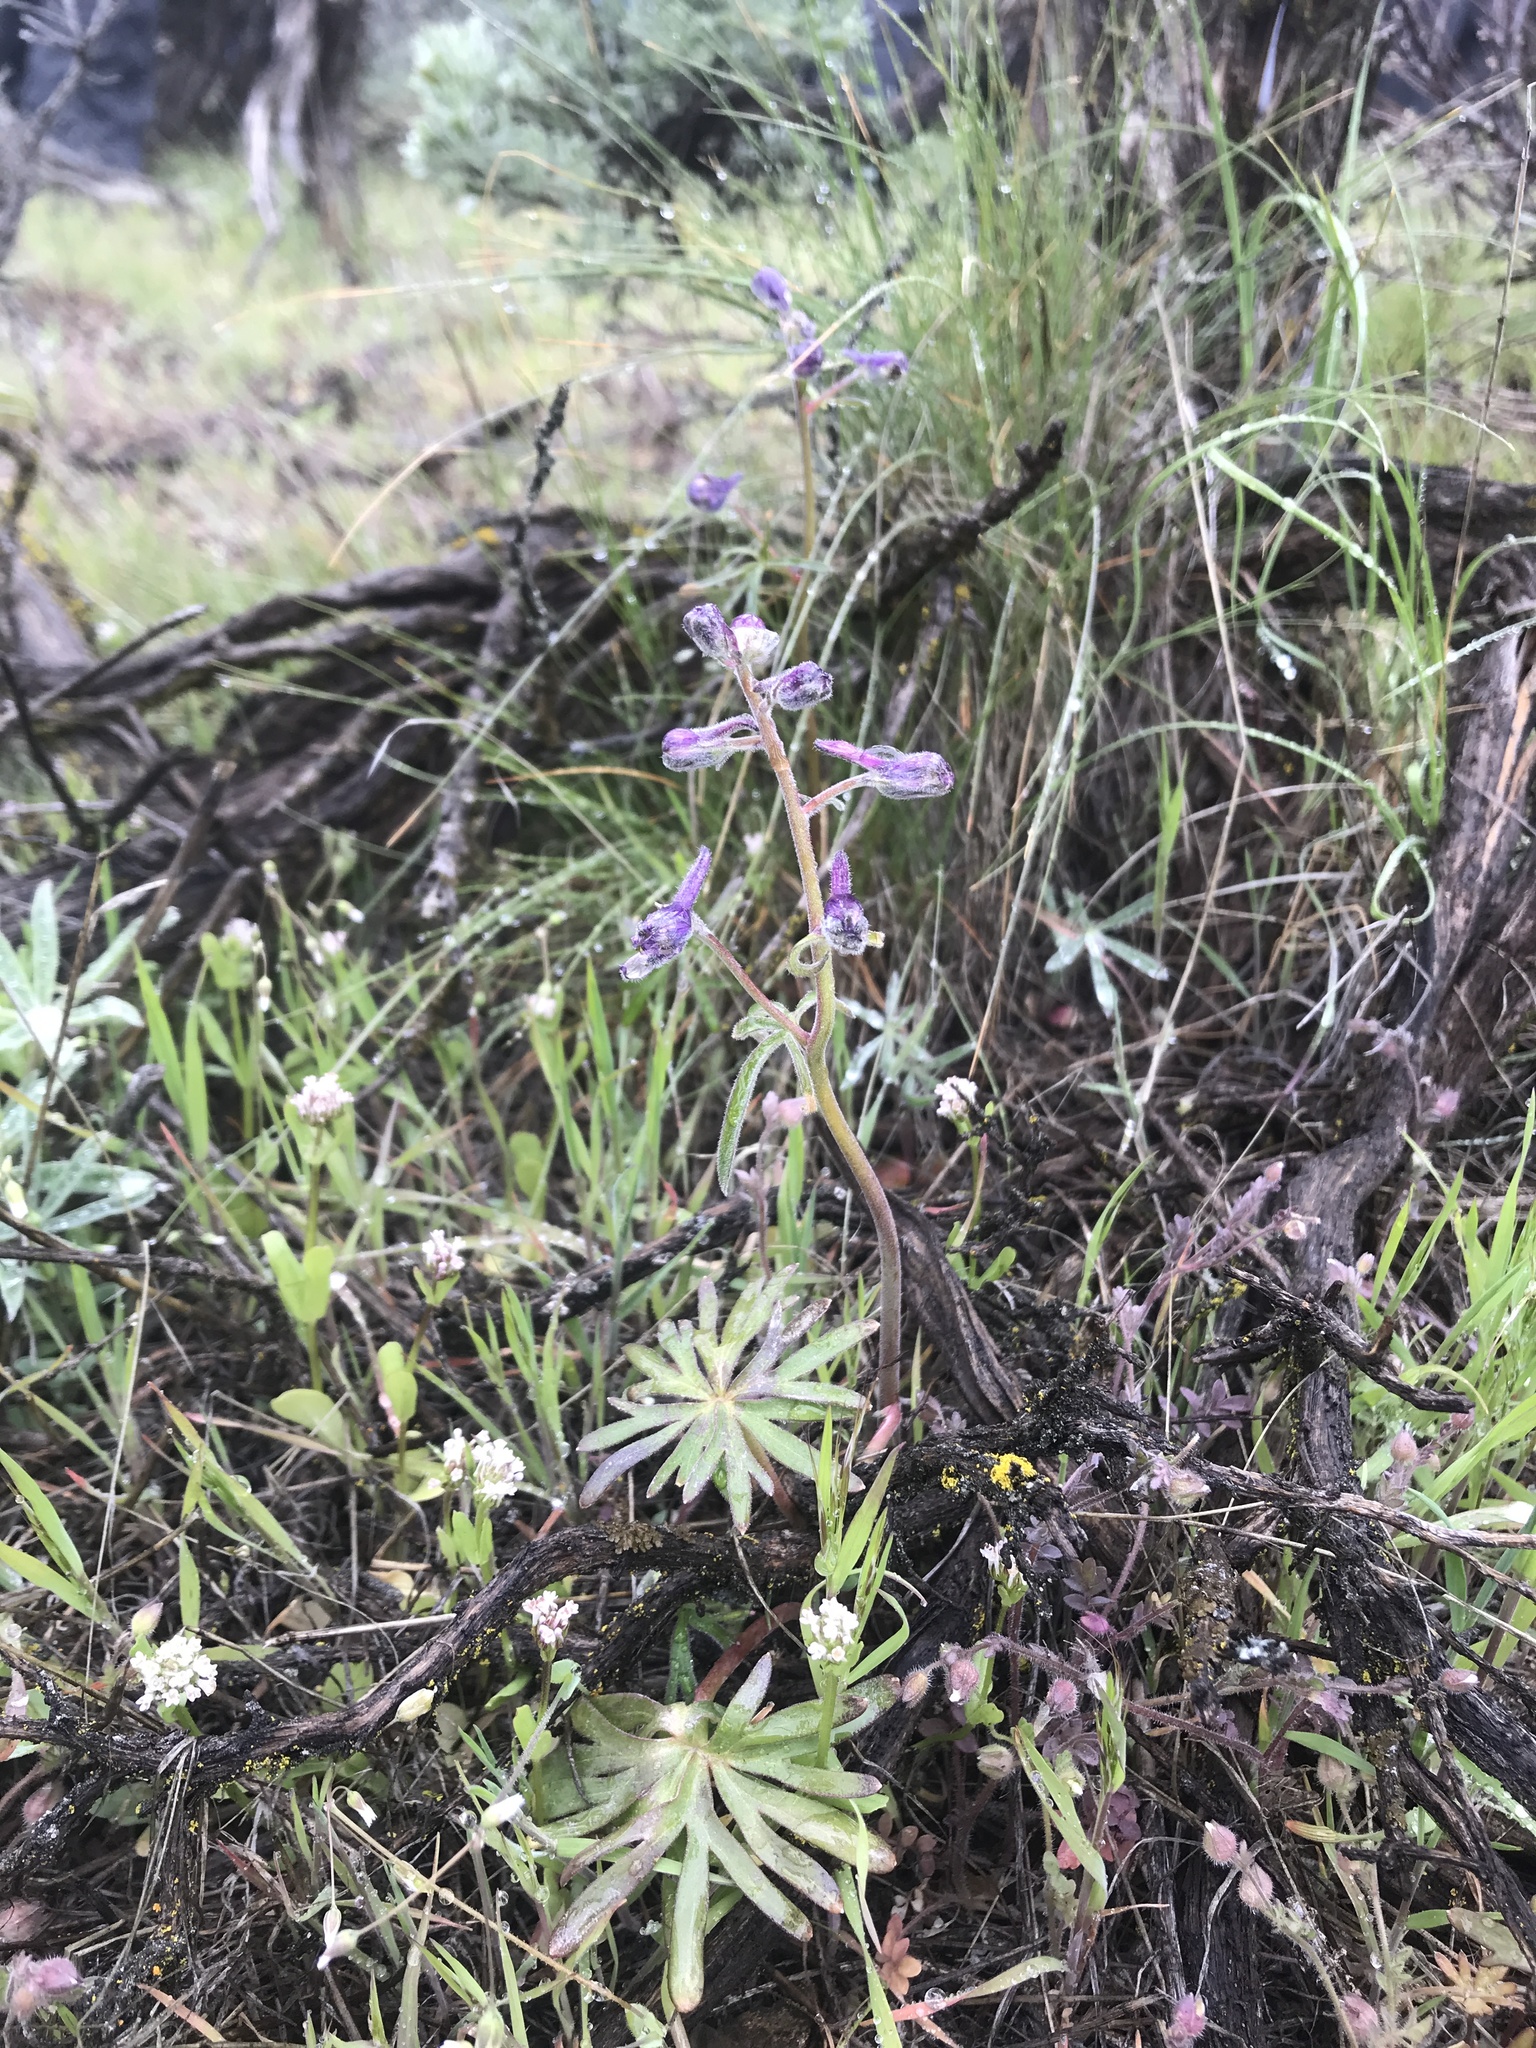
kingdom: Plantae
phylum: Tracheophyta
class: Magnoliopsida
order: Ranunculales
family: Ranunculaceae
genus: Delphinium
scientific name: Delphinium nuttallianum
